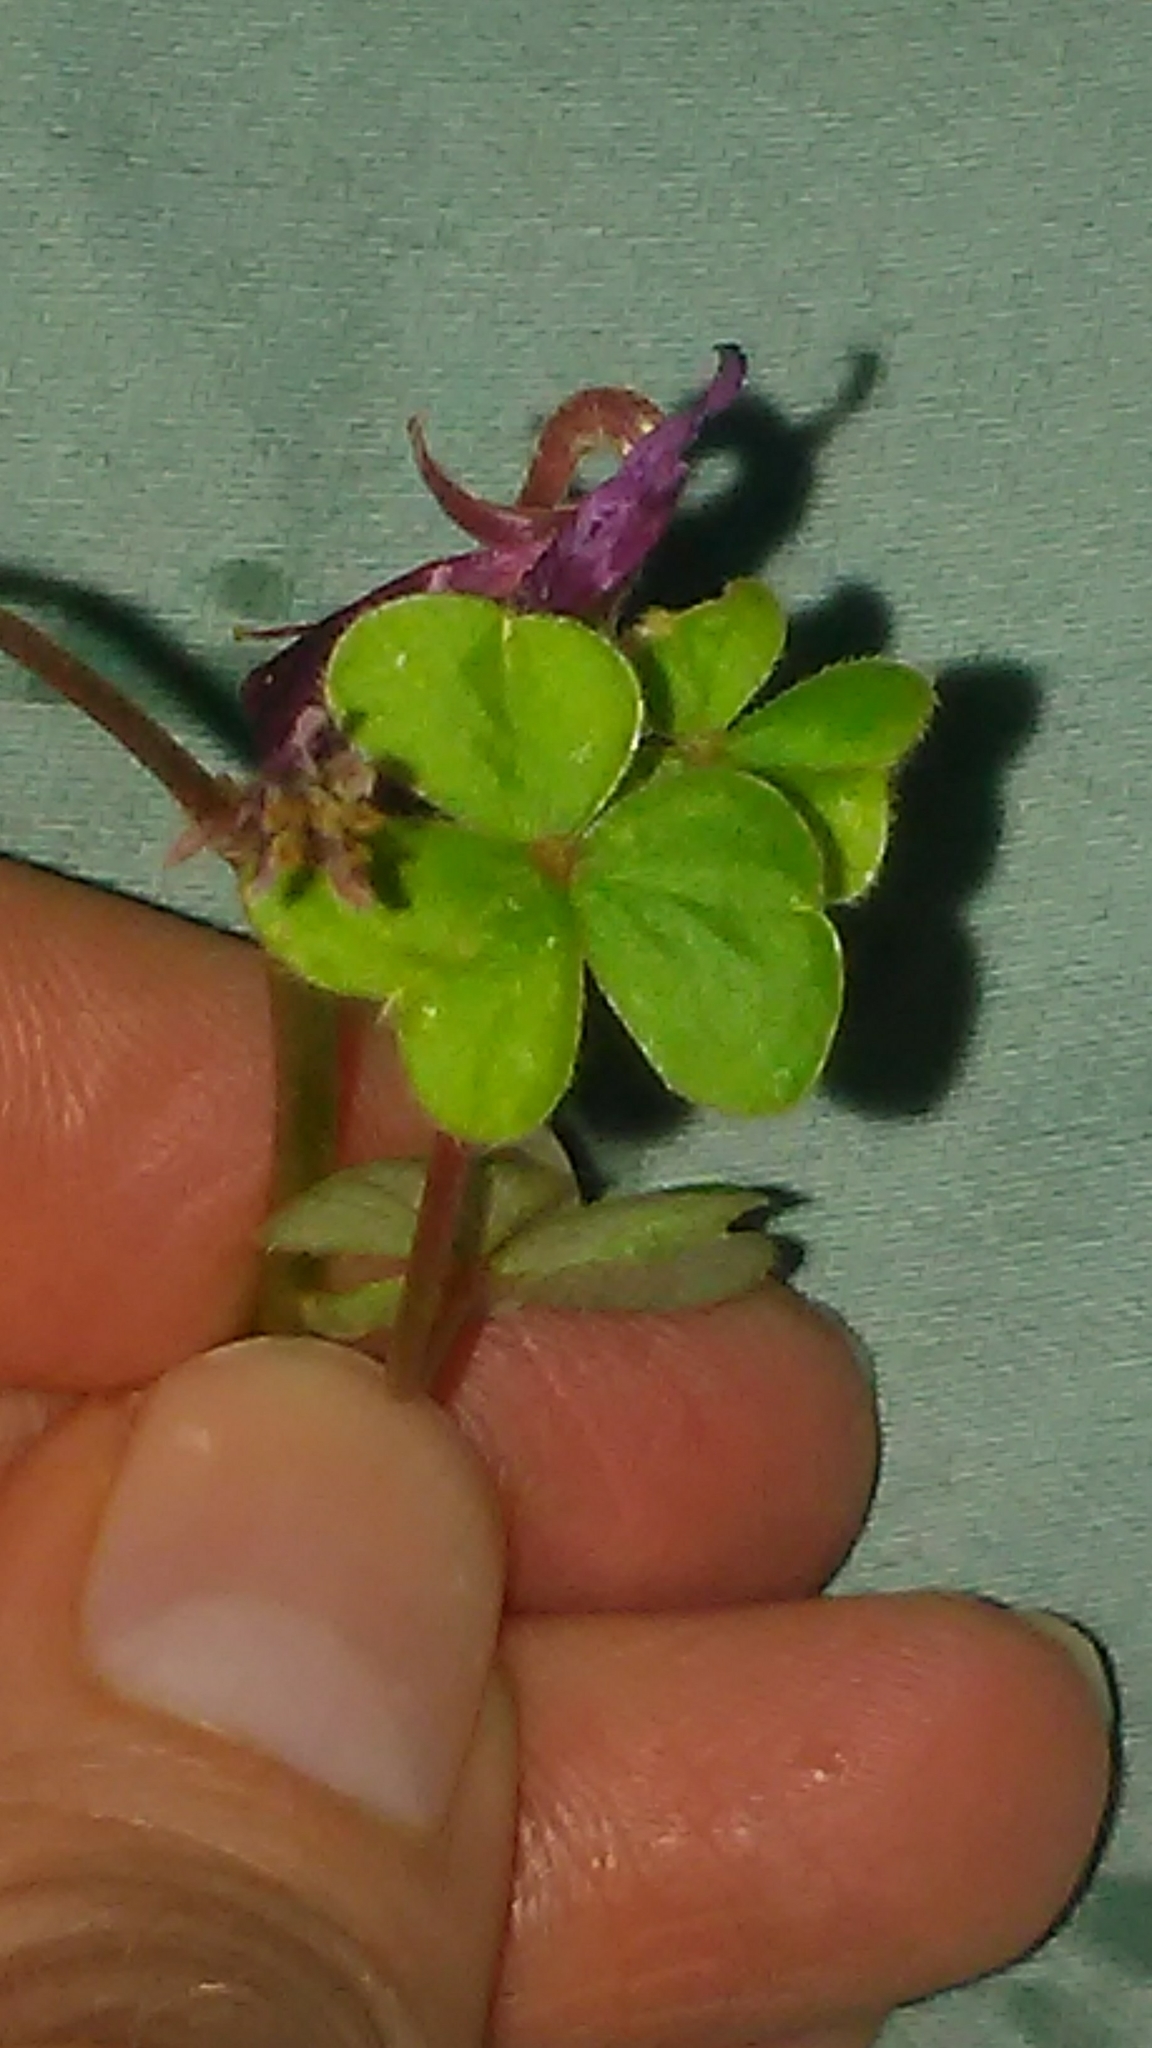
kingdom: Plantae
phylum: Tracheophyta
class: Magnoliopsida
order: Oxalidales
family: Oxalidaceae
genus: Oxalis
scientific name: Oxalis brasiliensis
